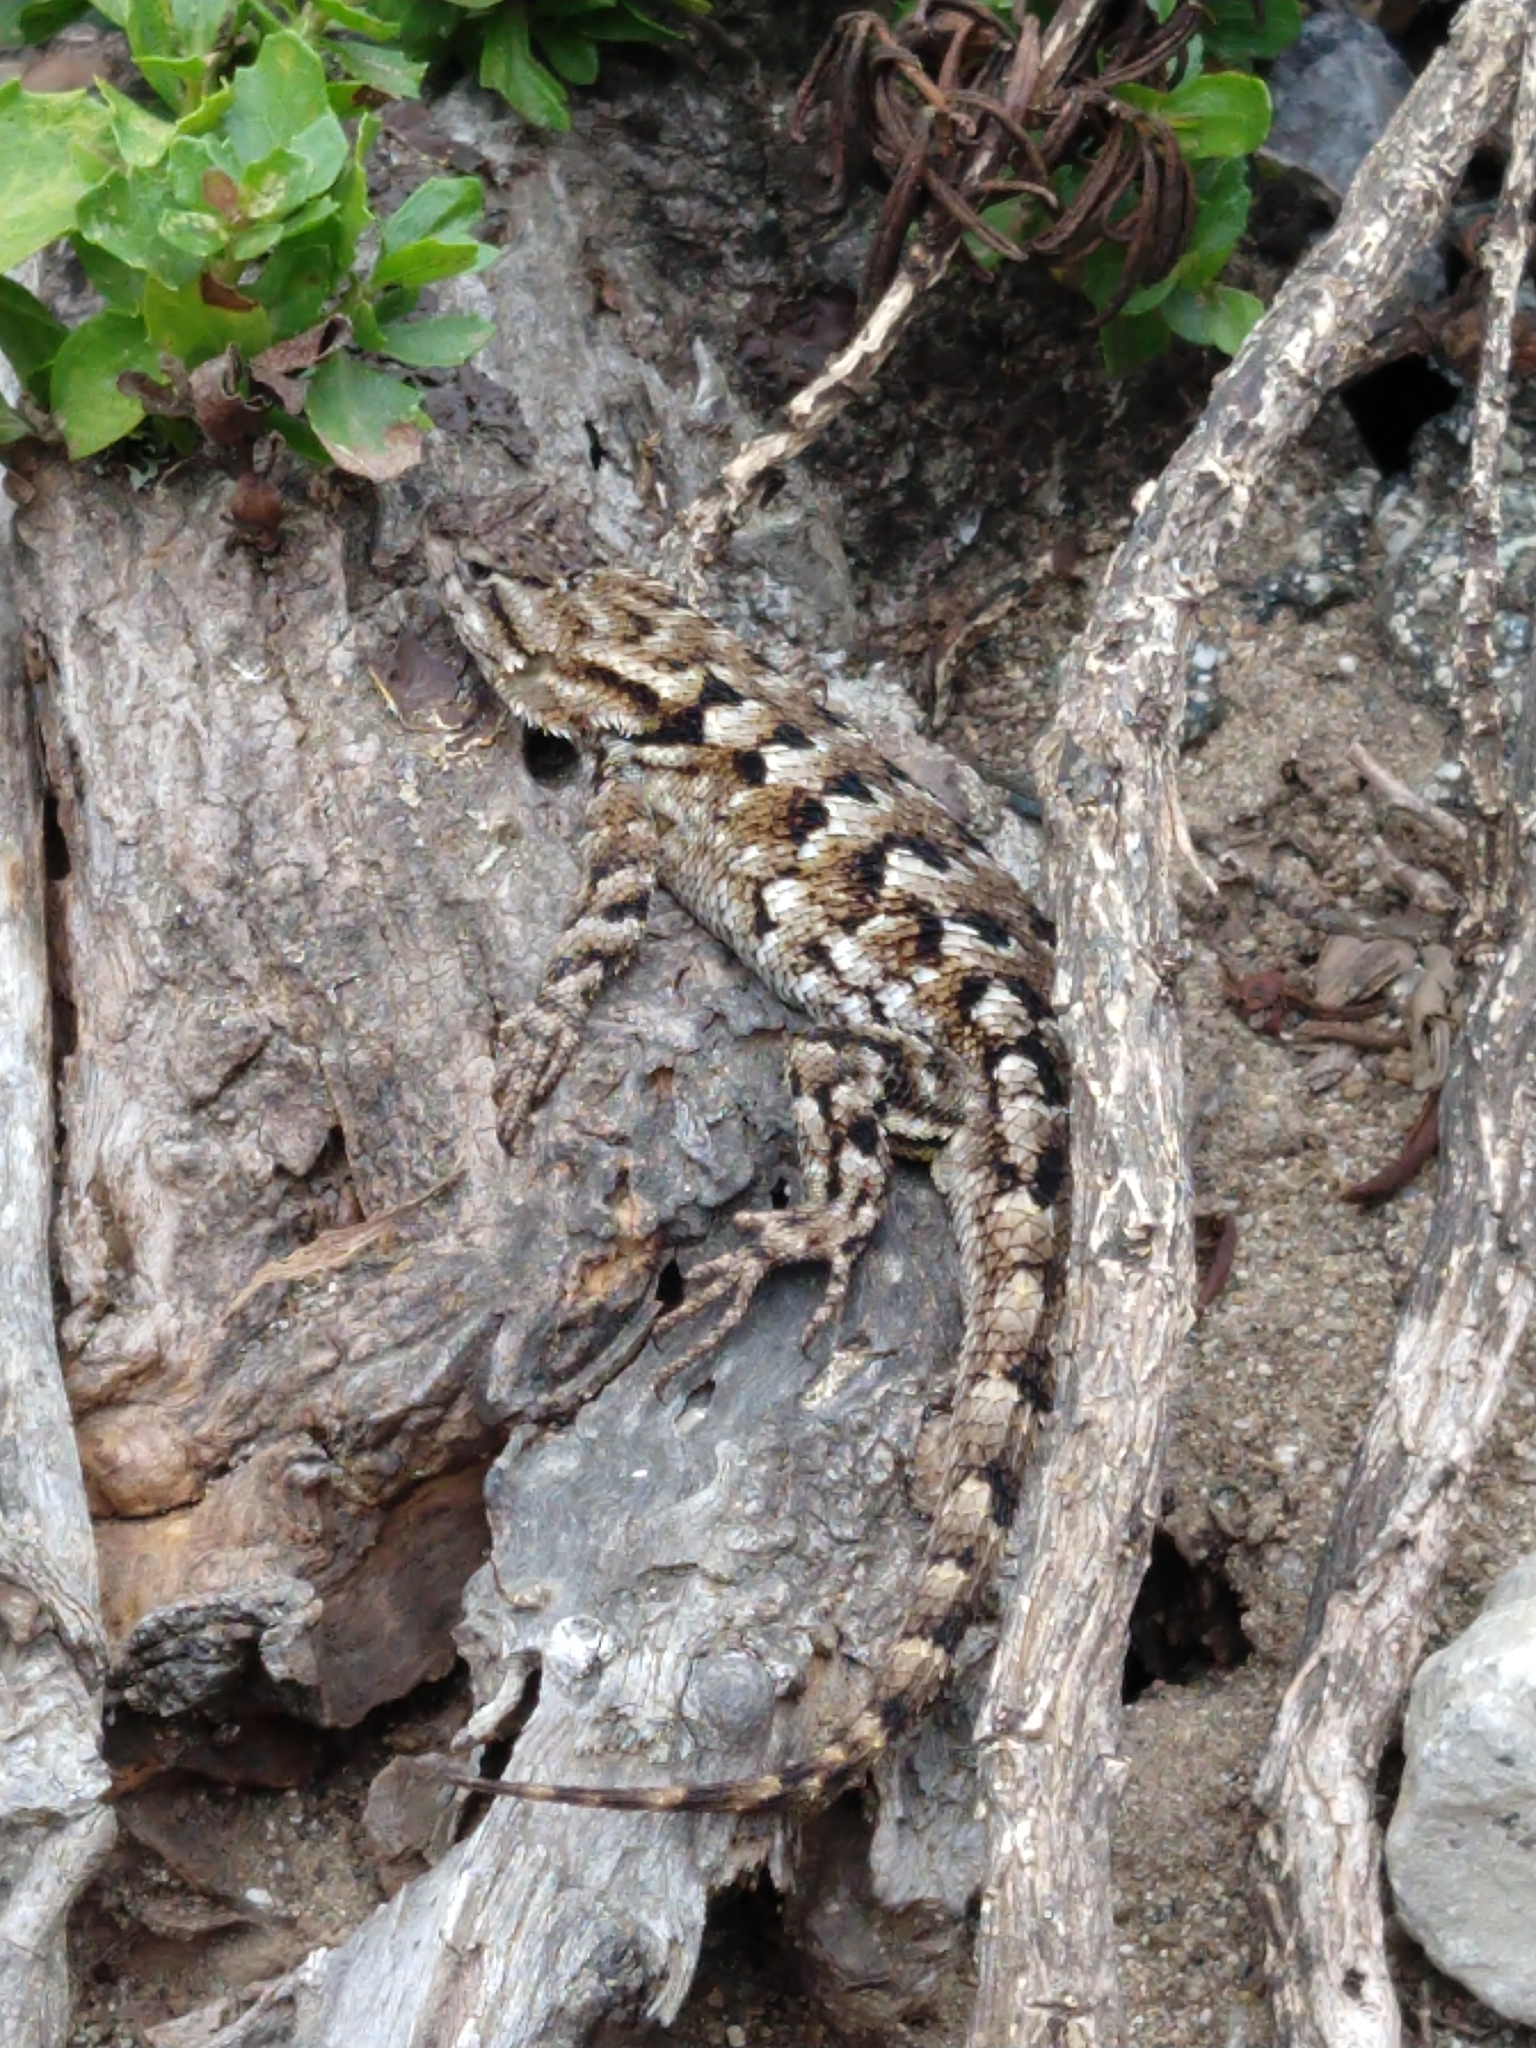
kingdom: Animalia
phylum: Chordata
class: Squamata
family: Phrynosomatidae
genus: Sceloporus
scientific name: Sceloporus occidentalis
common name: Western fence lizard
